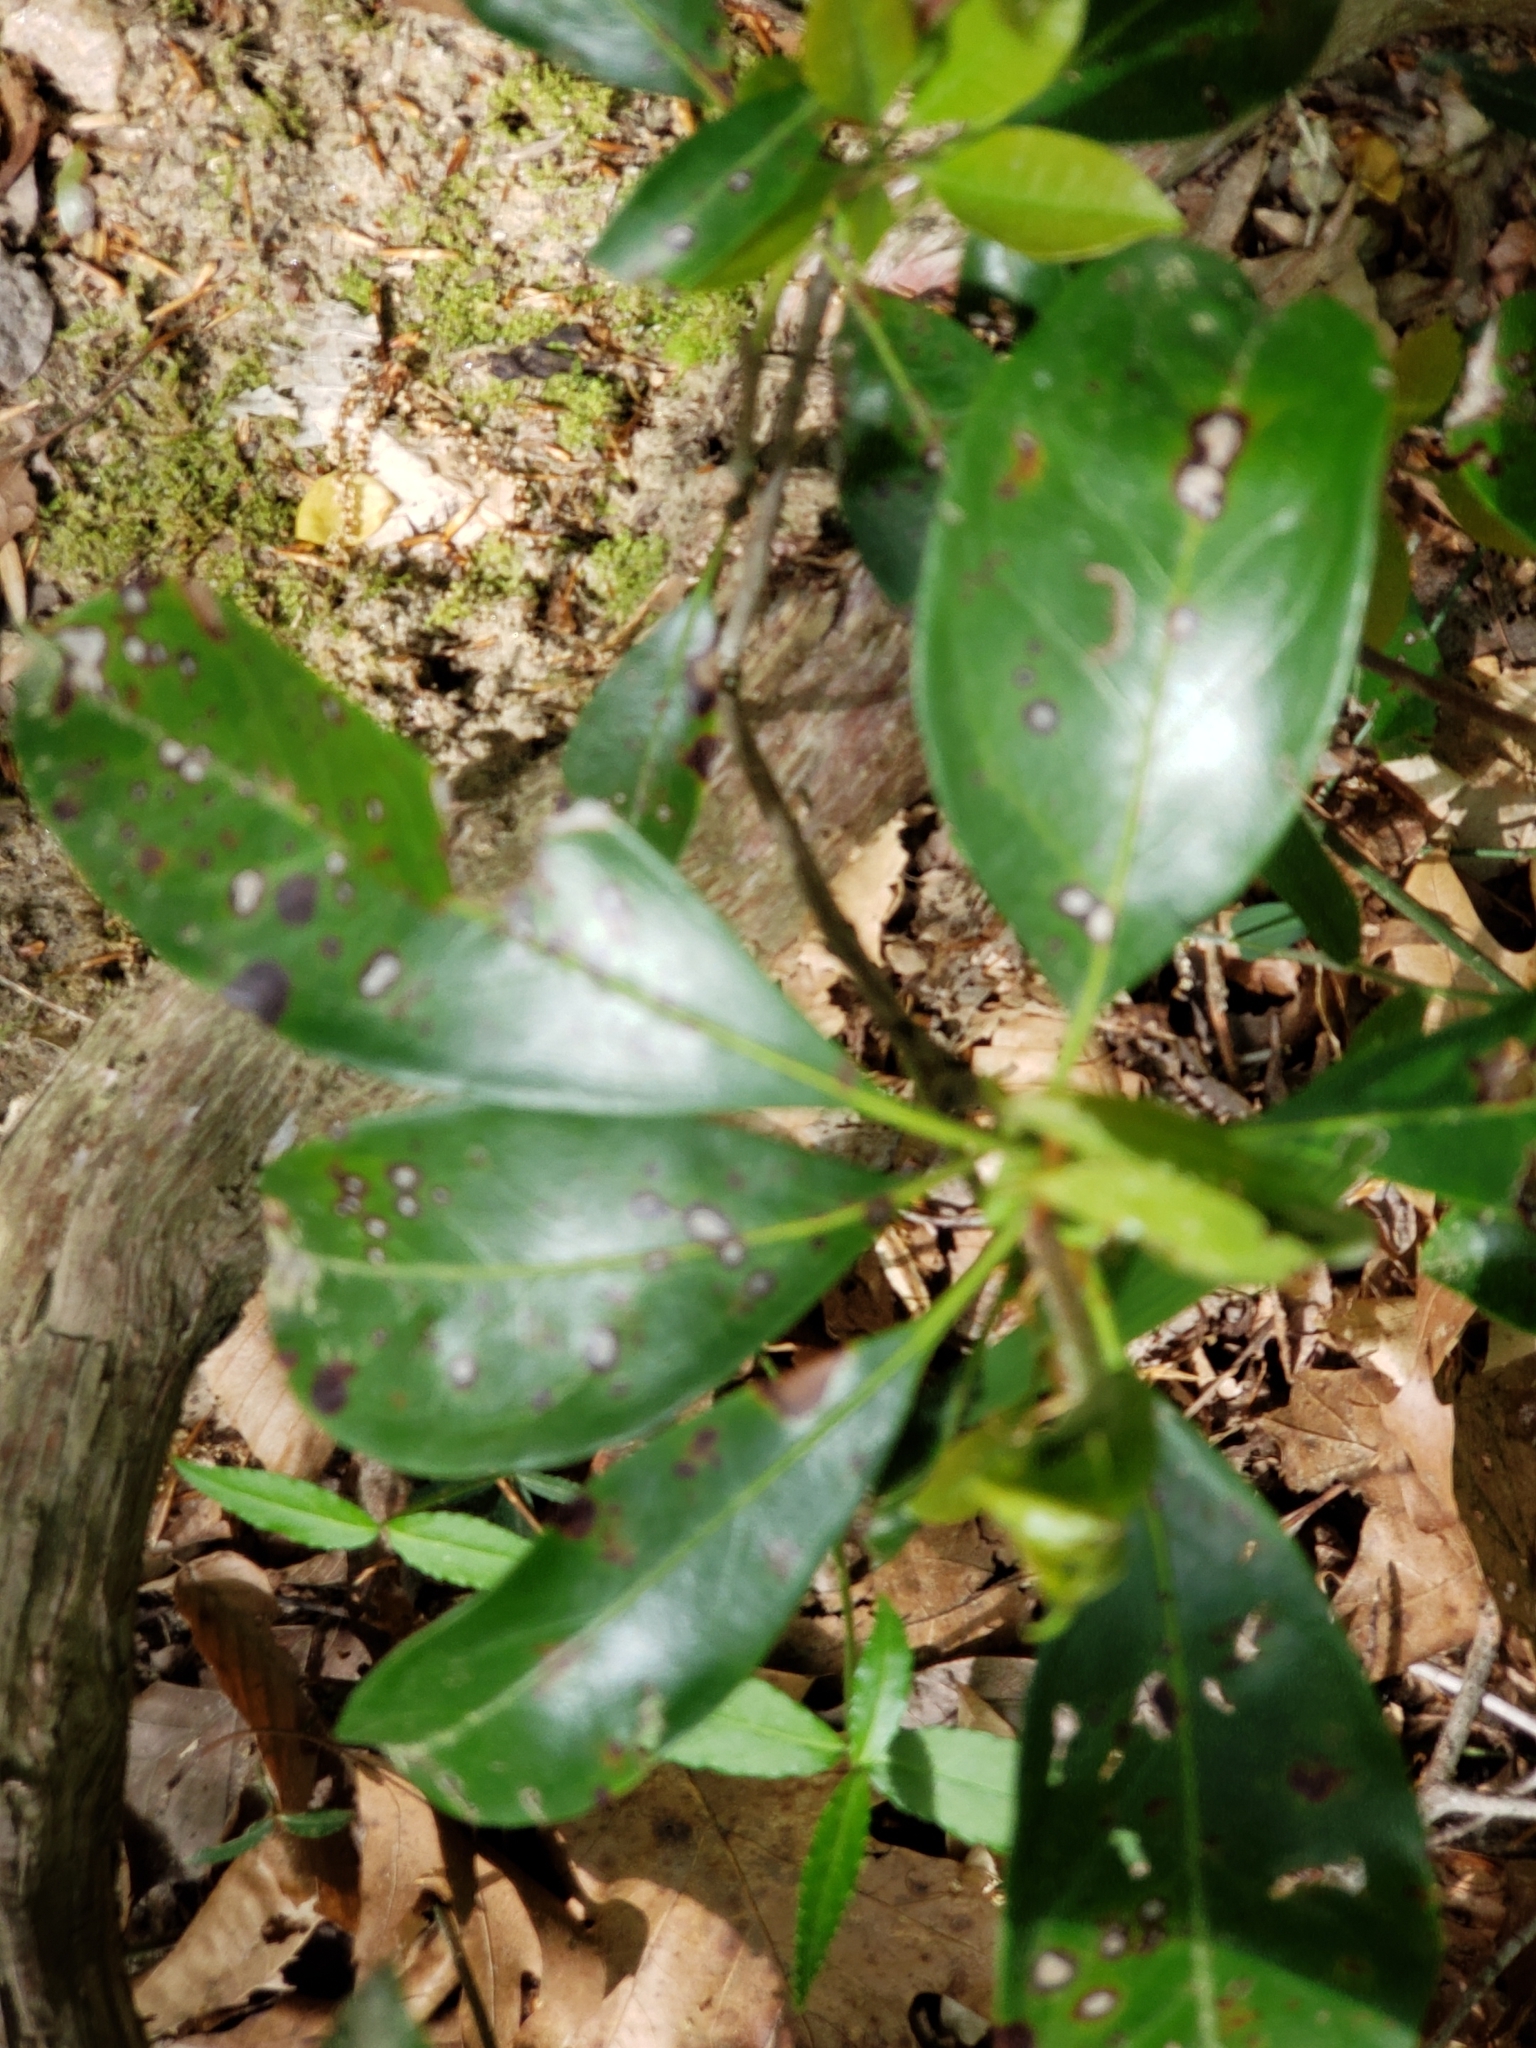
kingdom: Plantae
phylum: Tracheophyta
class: Magnoliopsida
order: Ericales
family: Ericaceae
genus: Kalmia
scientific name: Kalmia latifolia
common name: Mountain-laurel
